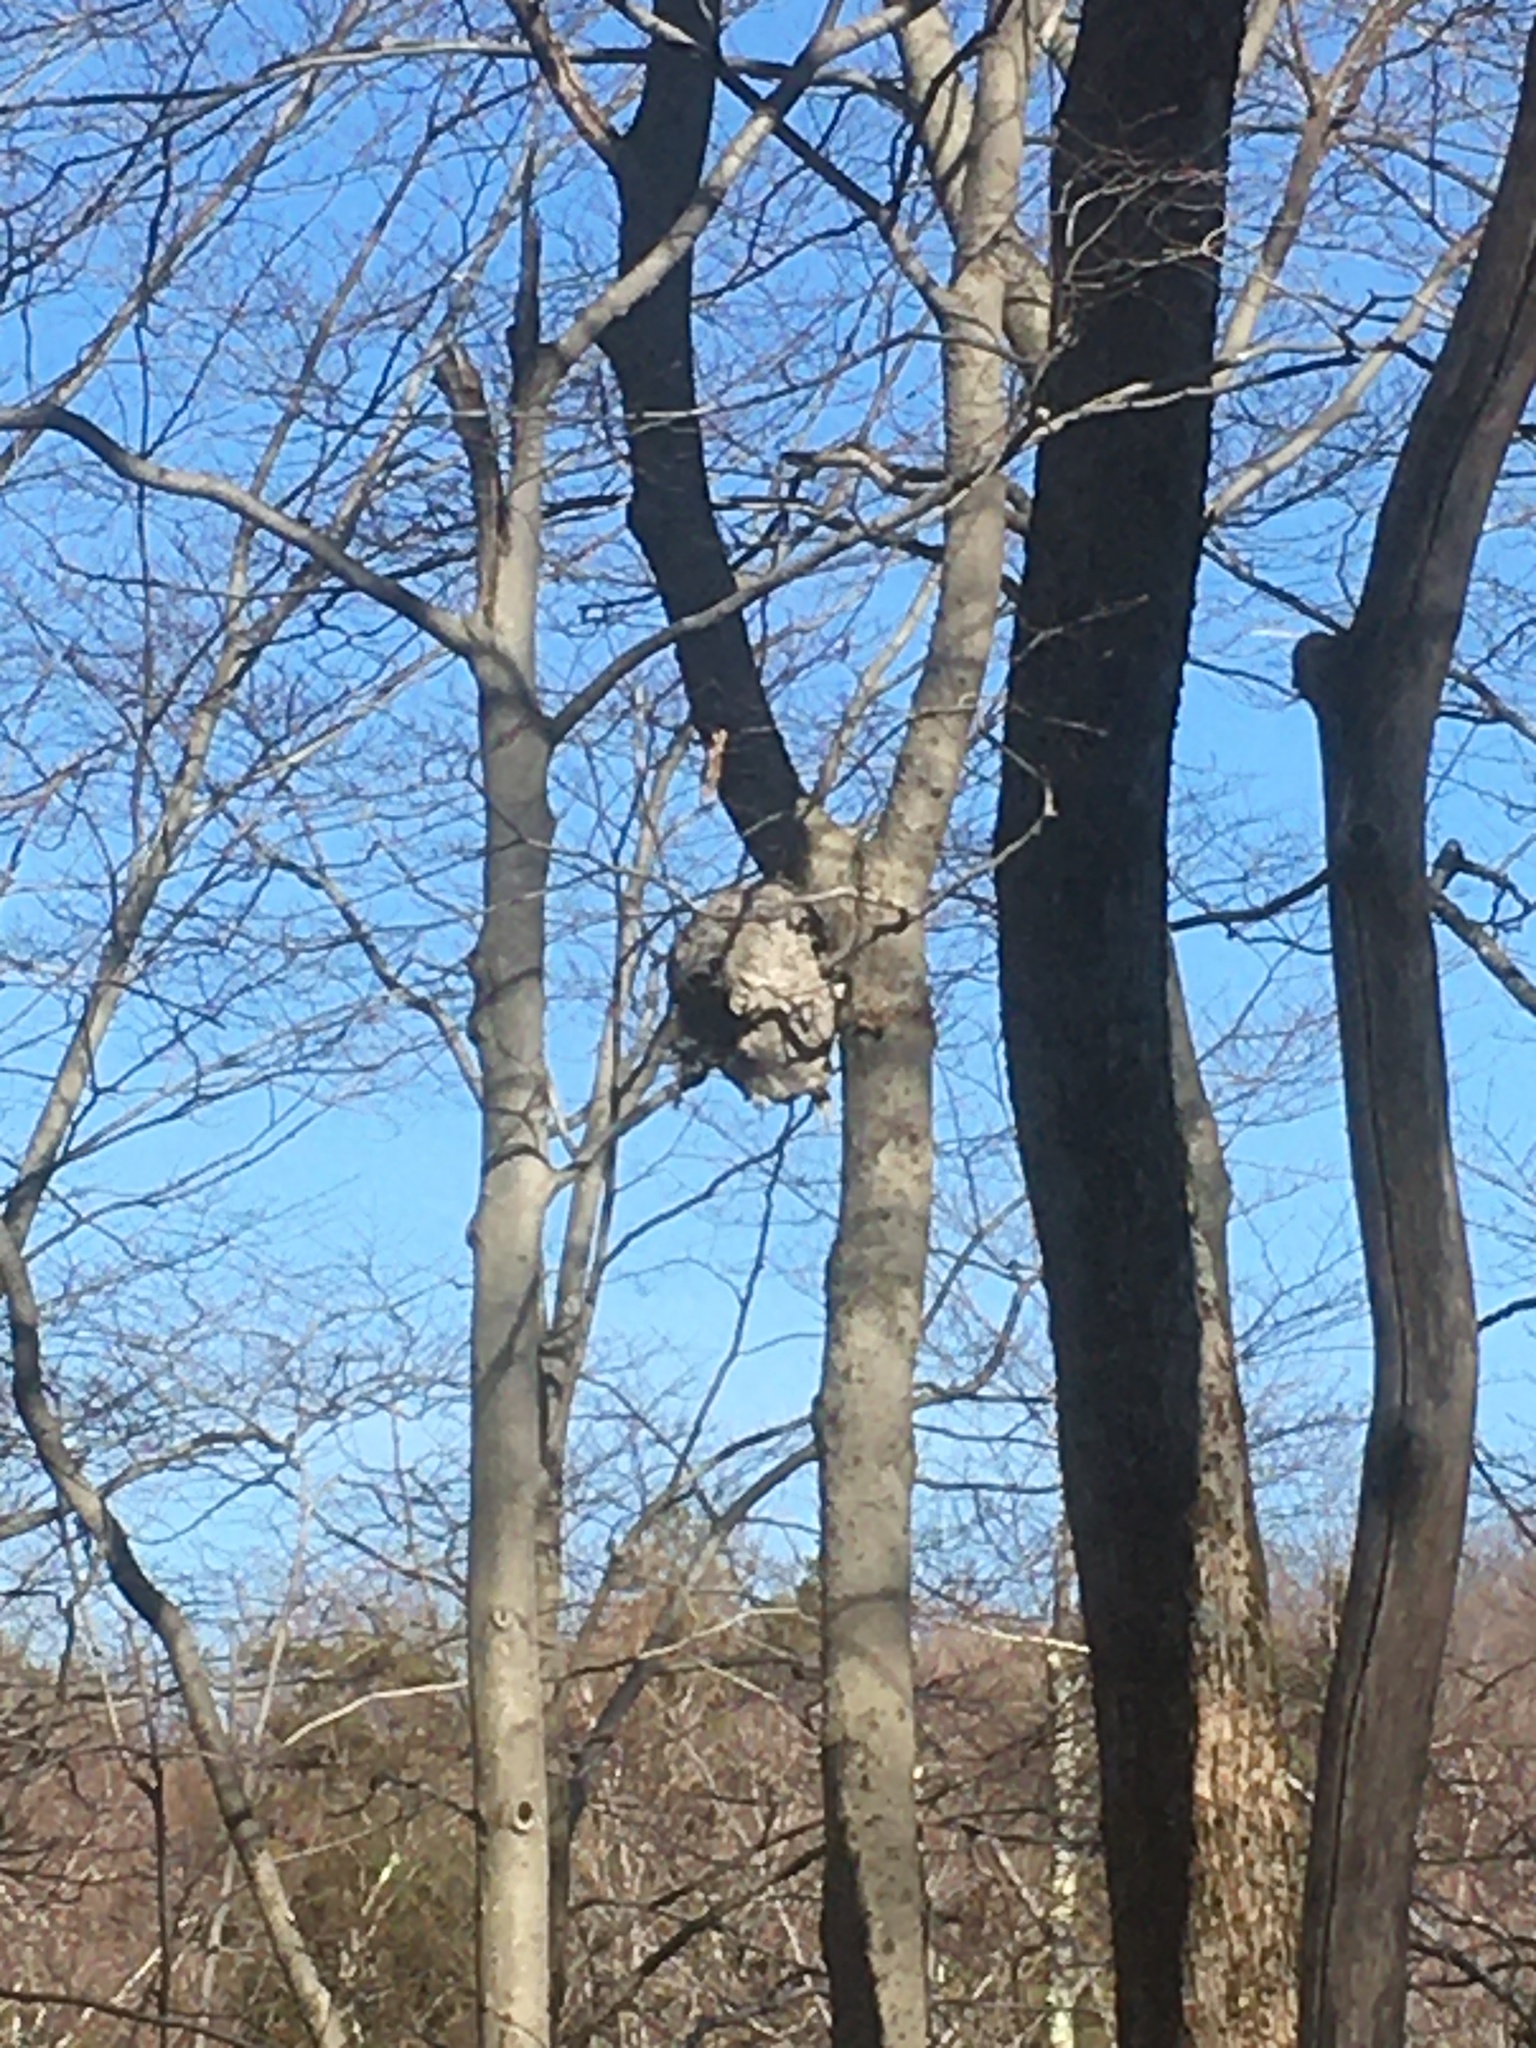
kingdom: Animalia
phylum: Arthropoda
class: Insecta
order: Hymenoptera
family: Vespidae
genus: Dolichovespula
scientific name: Dolichovespula
